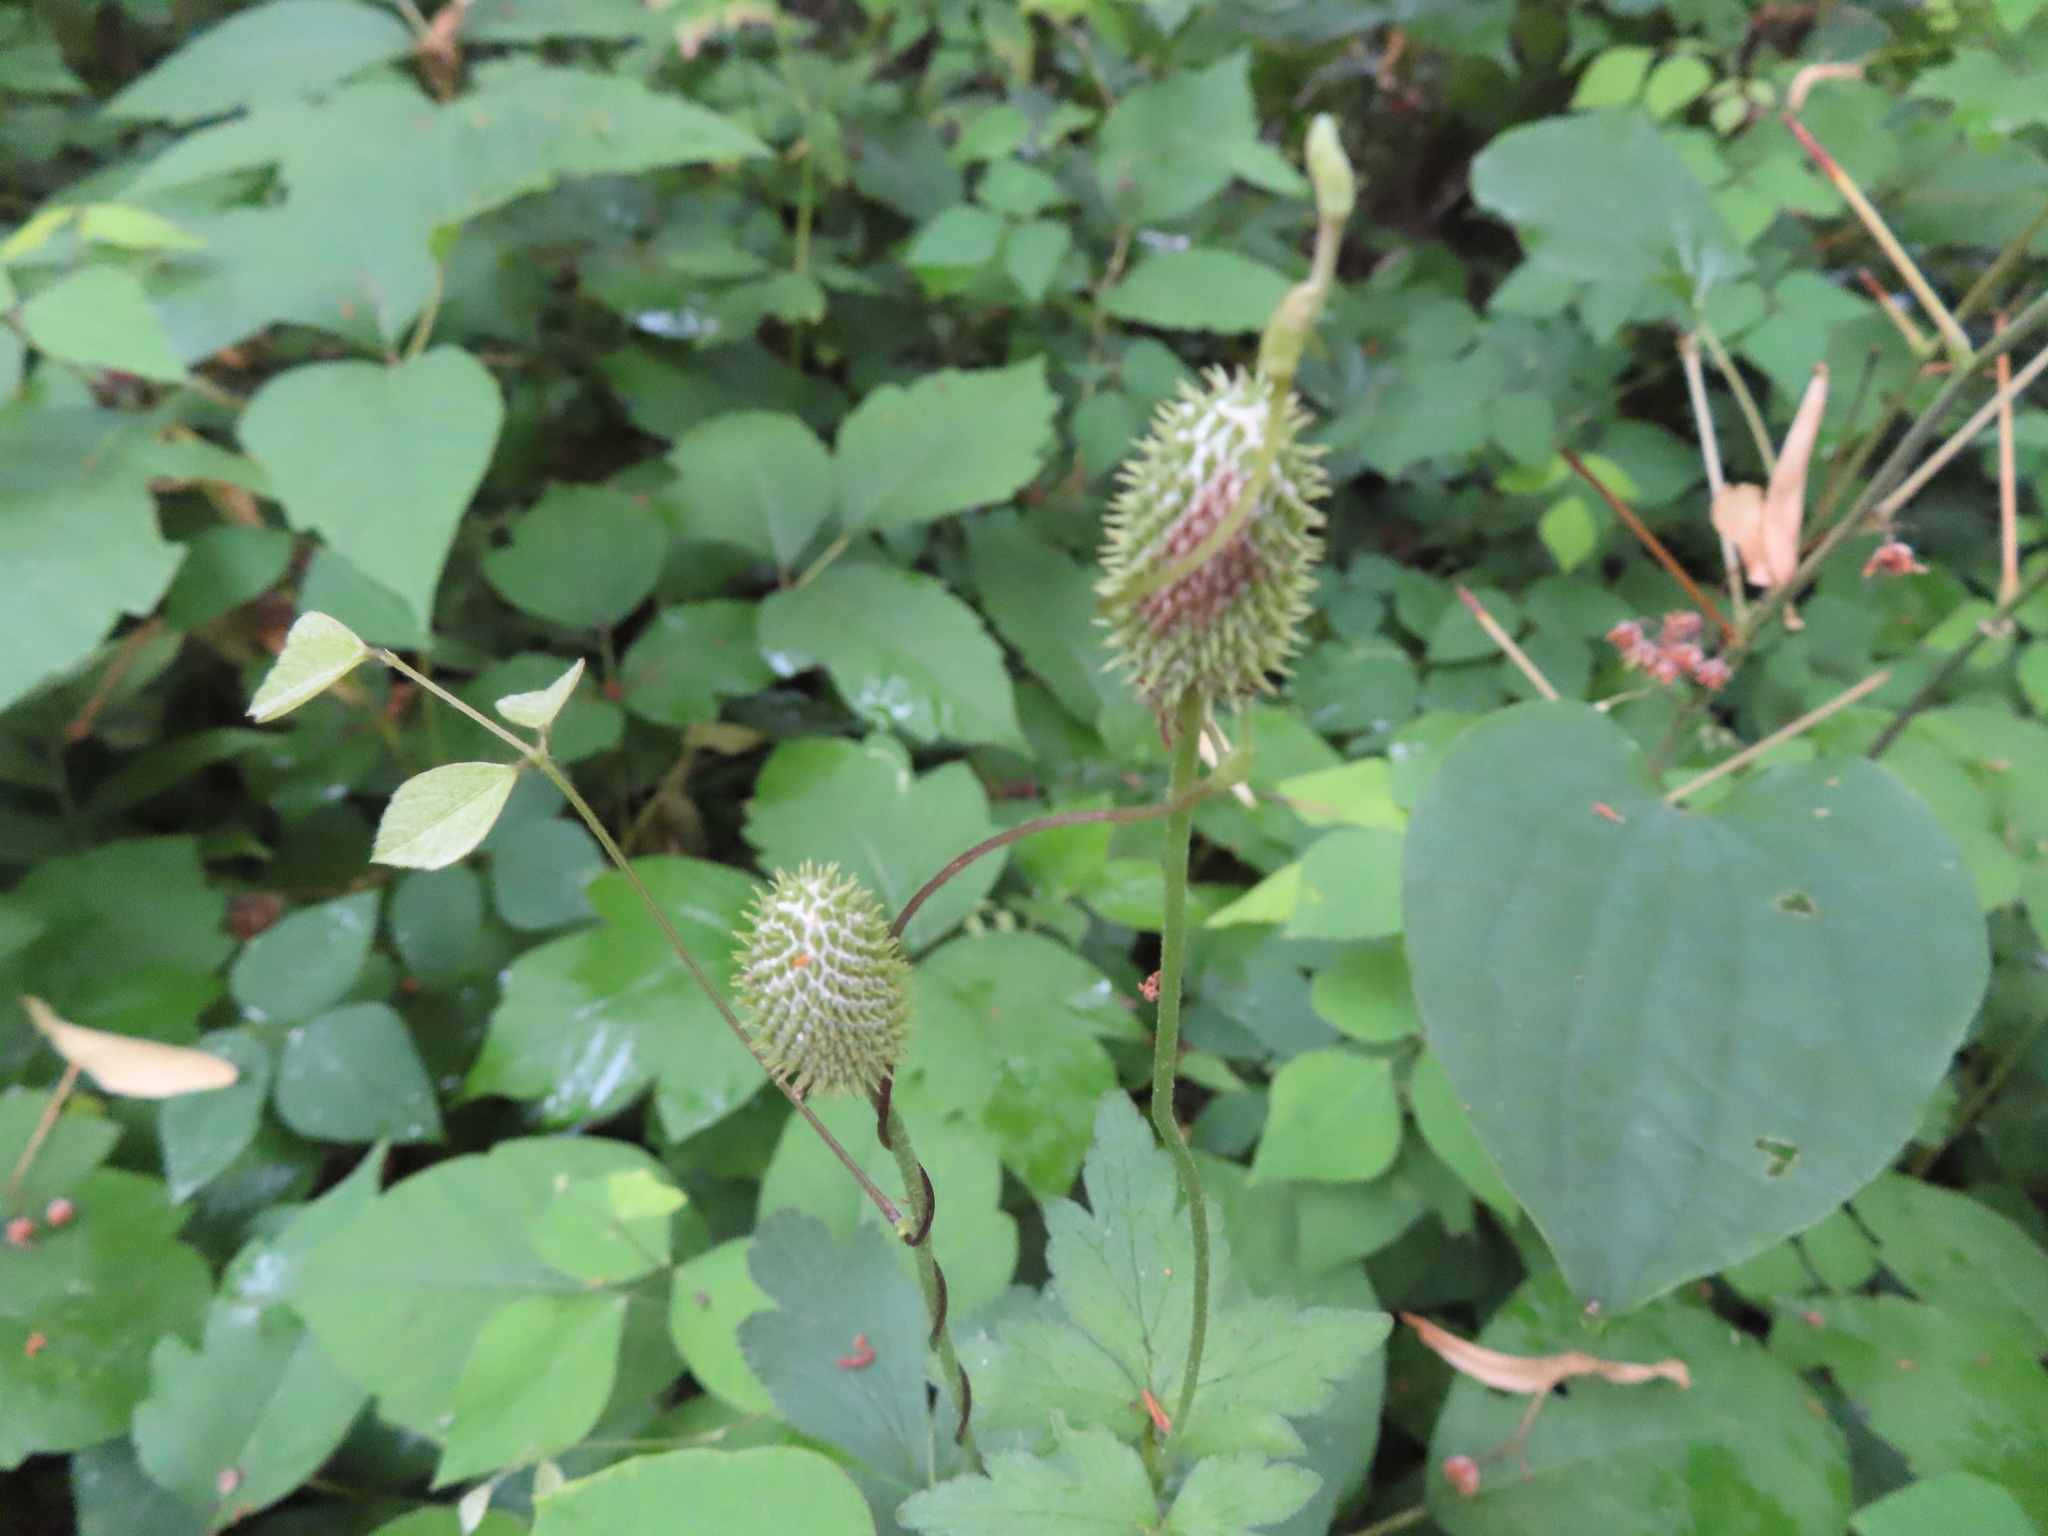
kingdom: Plantae
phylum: Tracheophyta
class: Magnoliopsida
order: Ranunculales
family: Ranunculaceae
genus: Anemone
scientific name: Anemone virginiana
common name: Tall anemone
